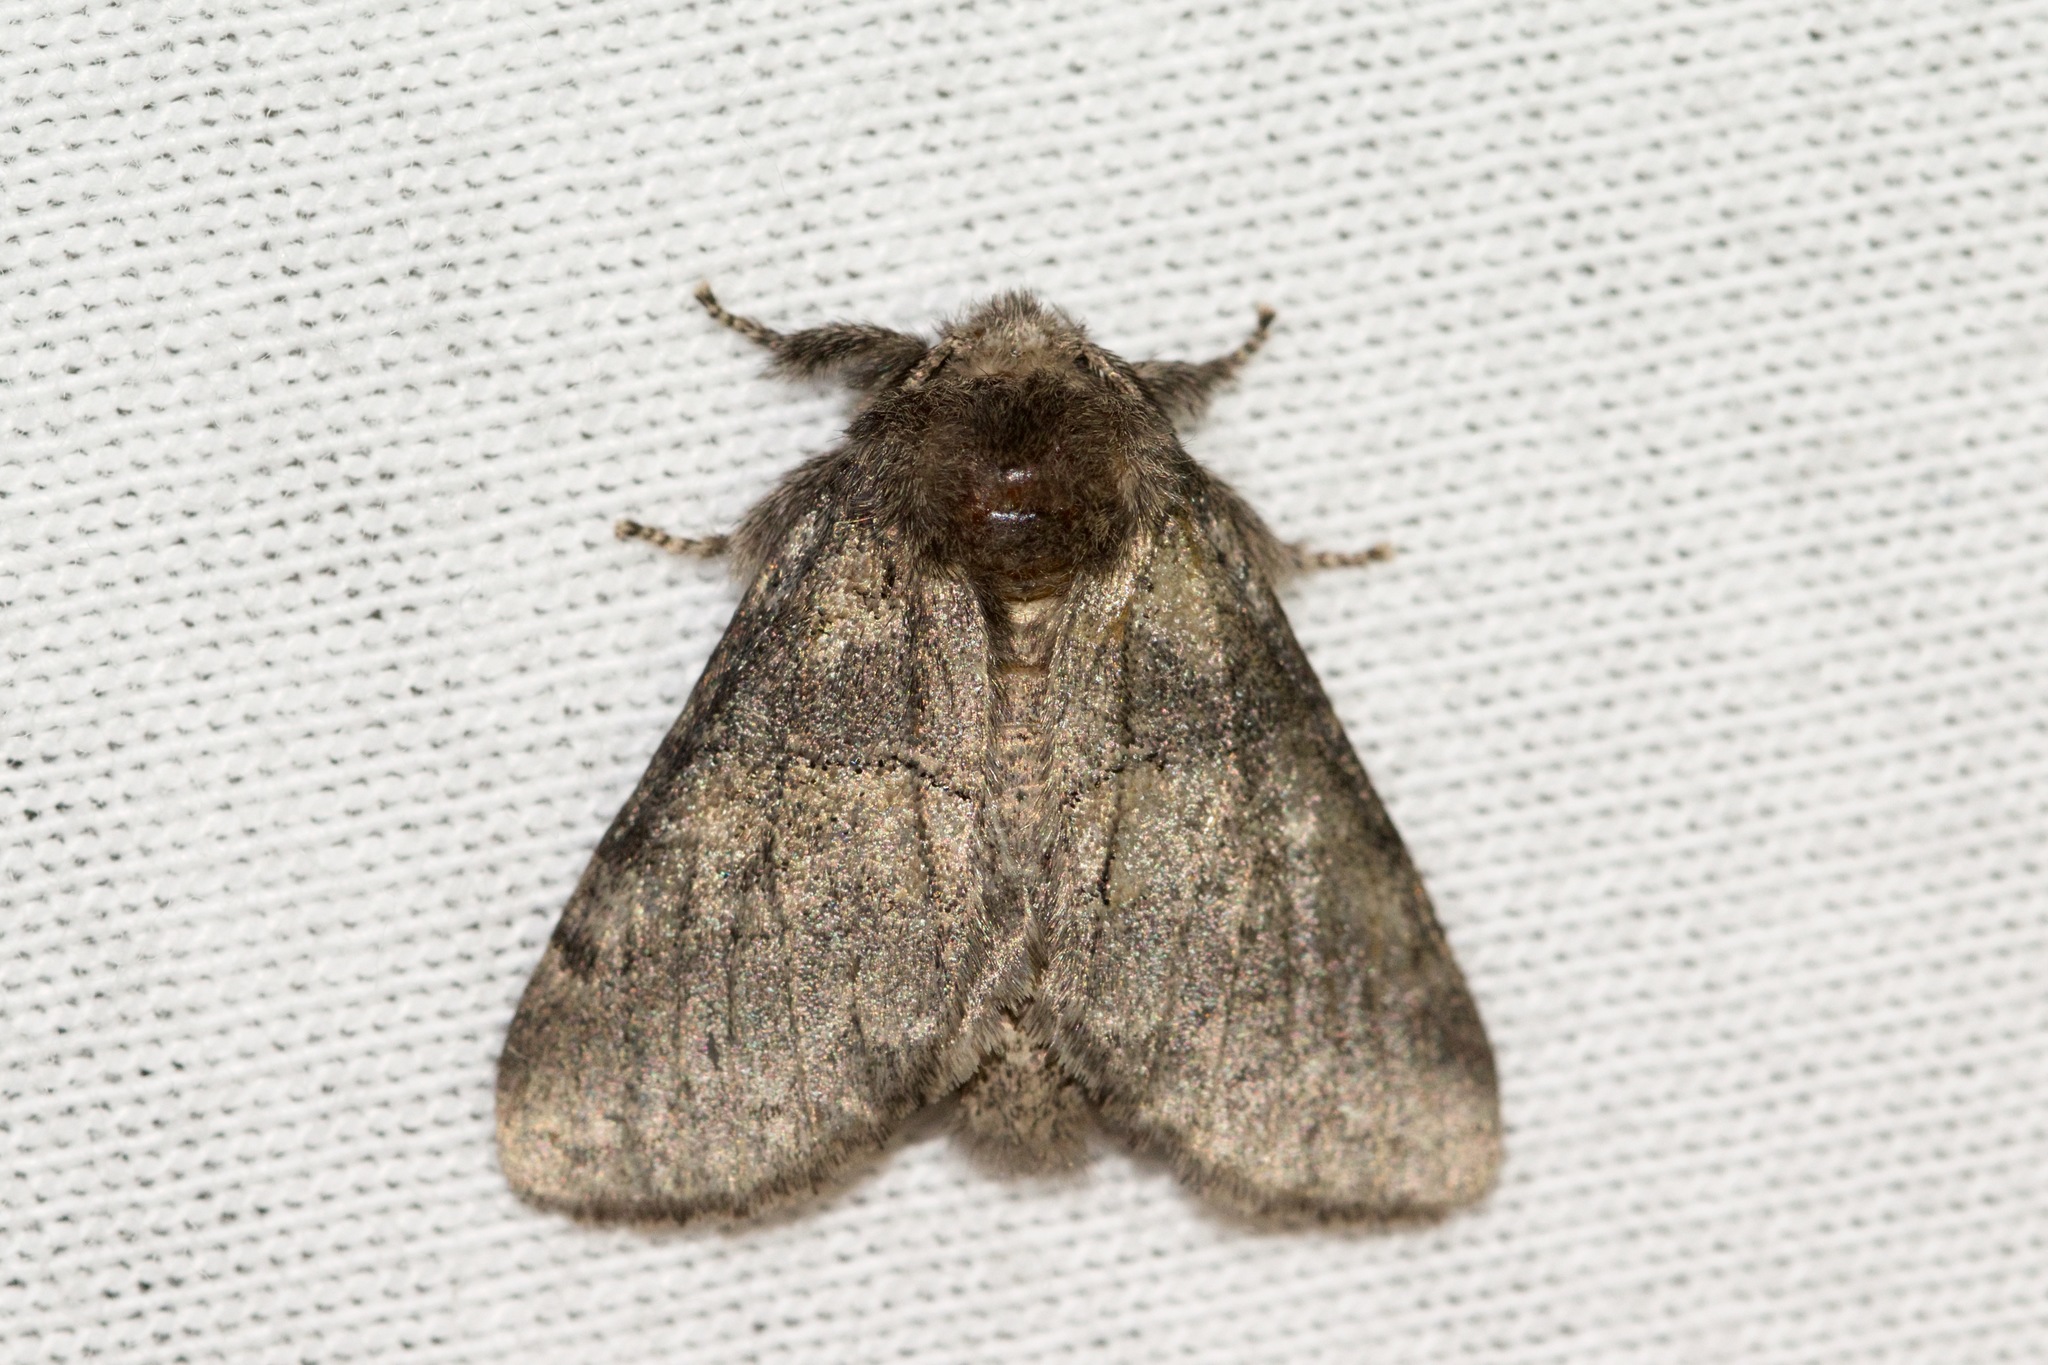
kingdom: Animalia
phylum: Arthropoda
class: Insecta
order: Lepidoptera
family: Notodontidae
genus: Gluphisia
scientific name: Gluphisia septentrionis
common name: Common gluphisia
